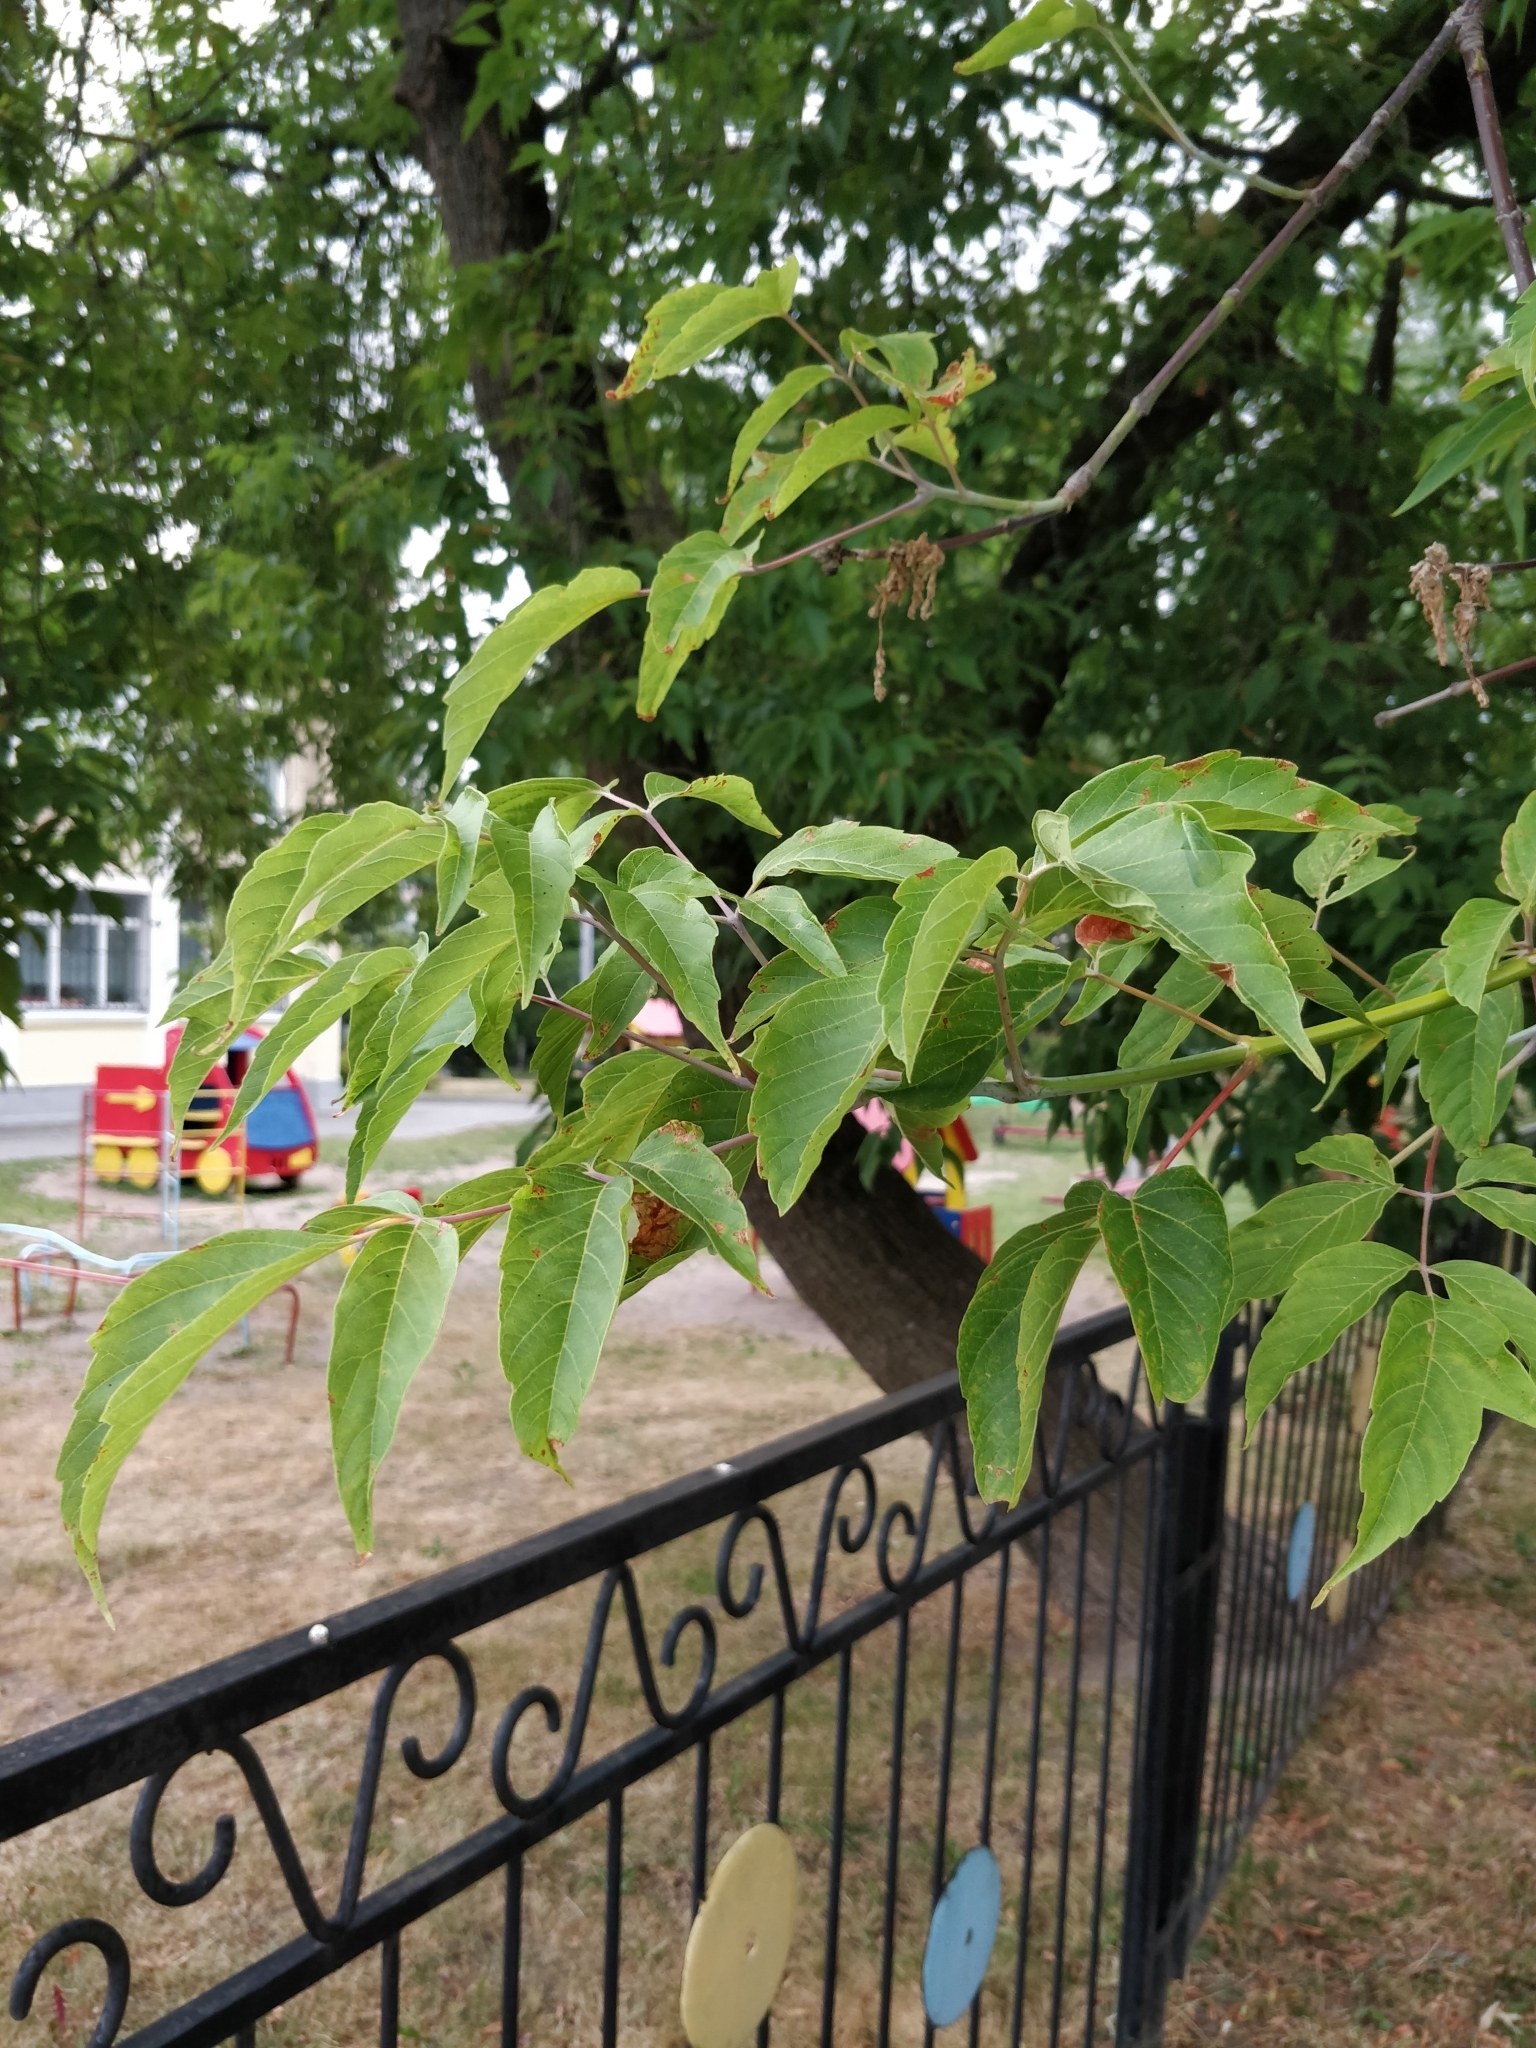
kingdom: Plantae
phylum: Tracheophyta
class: Magnoliopsida
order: Sapindales
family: Sapindaceae
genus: Acer
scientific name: Acer negundo
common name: Ashleaf maple
